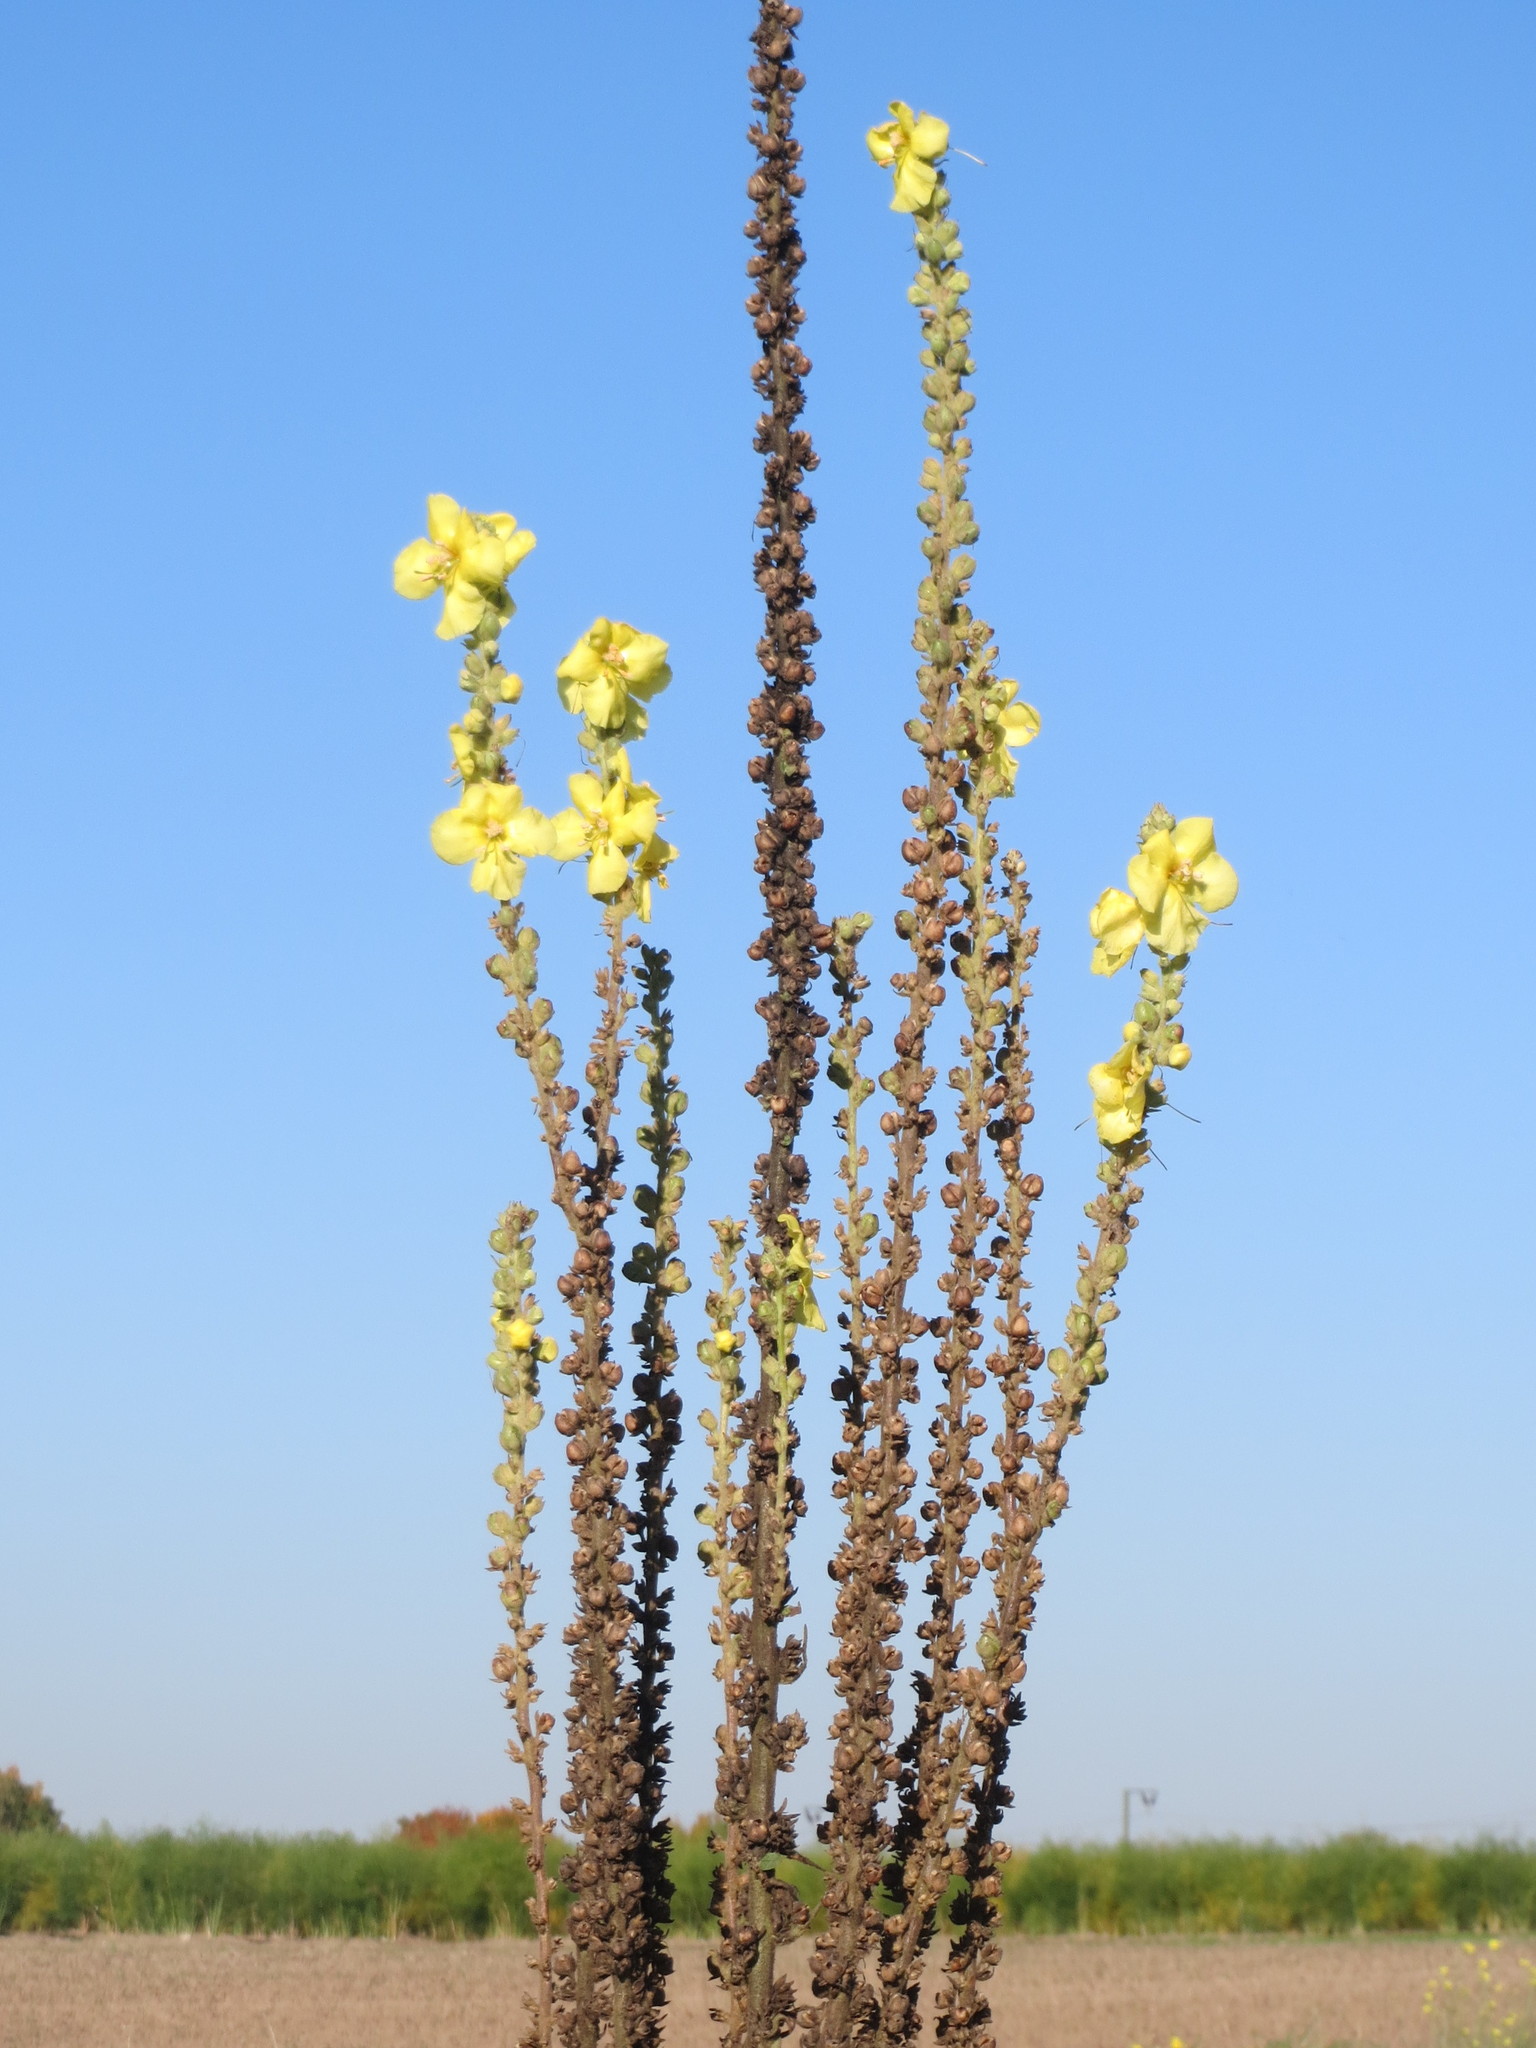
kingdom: Plantae
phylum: Tracheophyta
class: Magnoliopsida
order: Lamiales
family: Scrophulariaceae
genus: Verbascum
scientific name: Verbascum densiflorum
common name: Dense-flowered mullein
